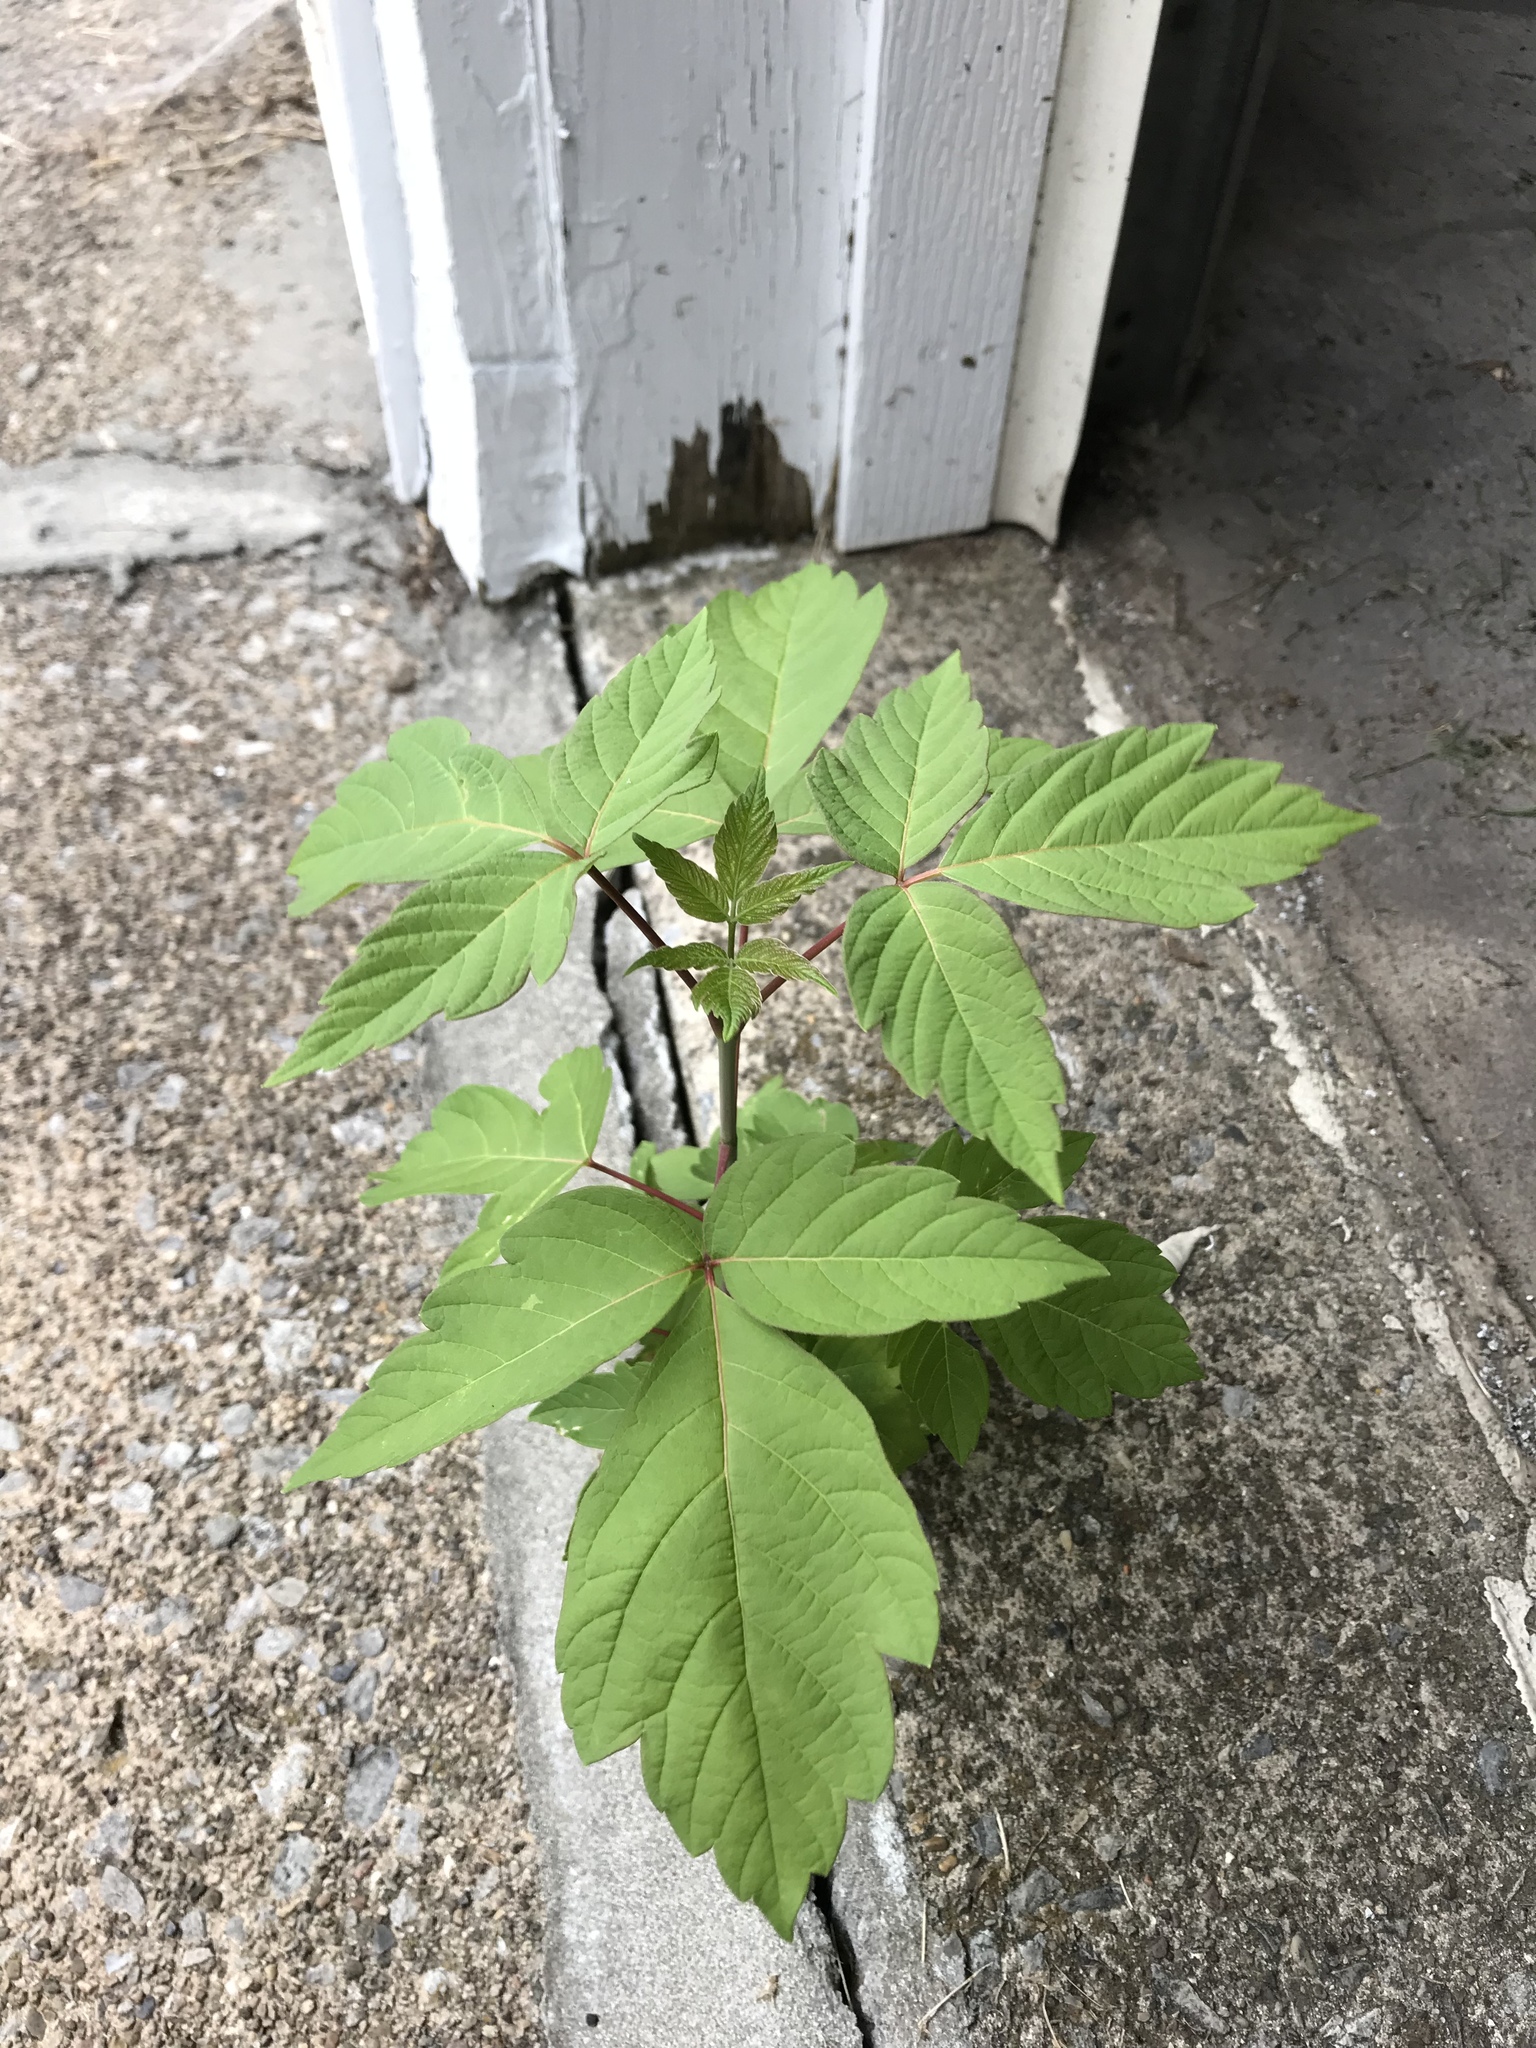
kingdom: Plantae
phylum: Tracheophyta
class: Magnoliopsida
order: Sapindales
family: Sapindaceae
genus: Acer
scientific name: Acer negundo
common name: Ashleaf maple
